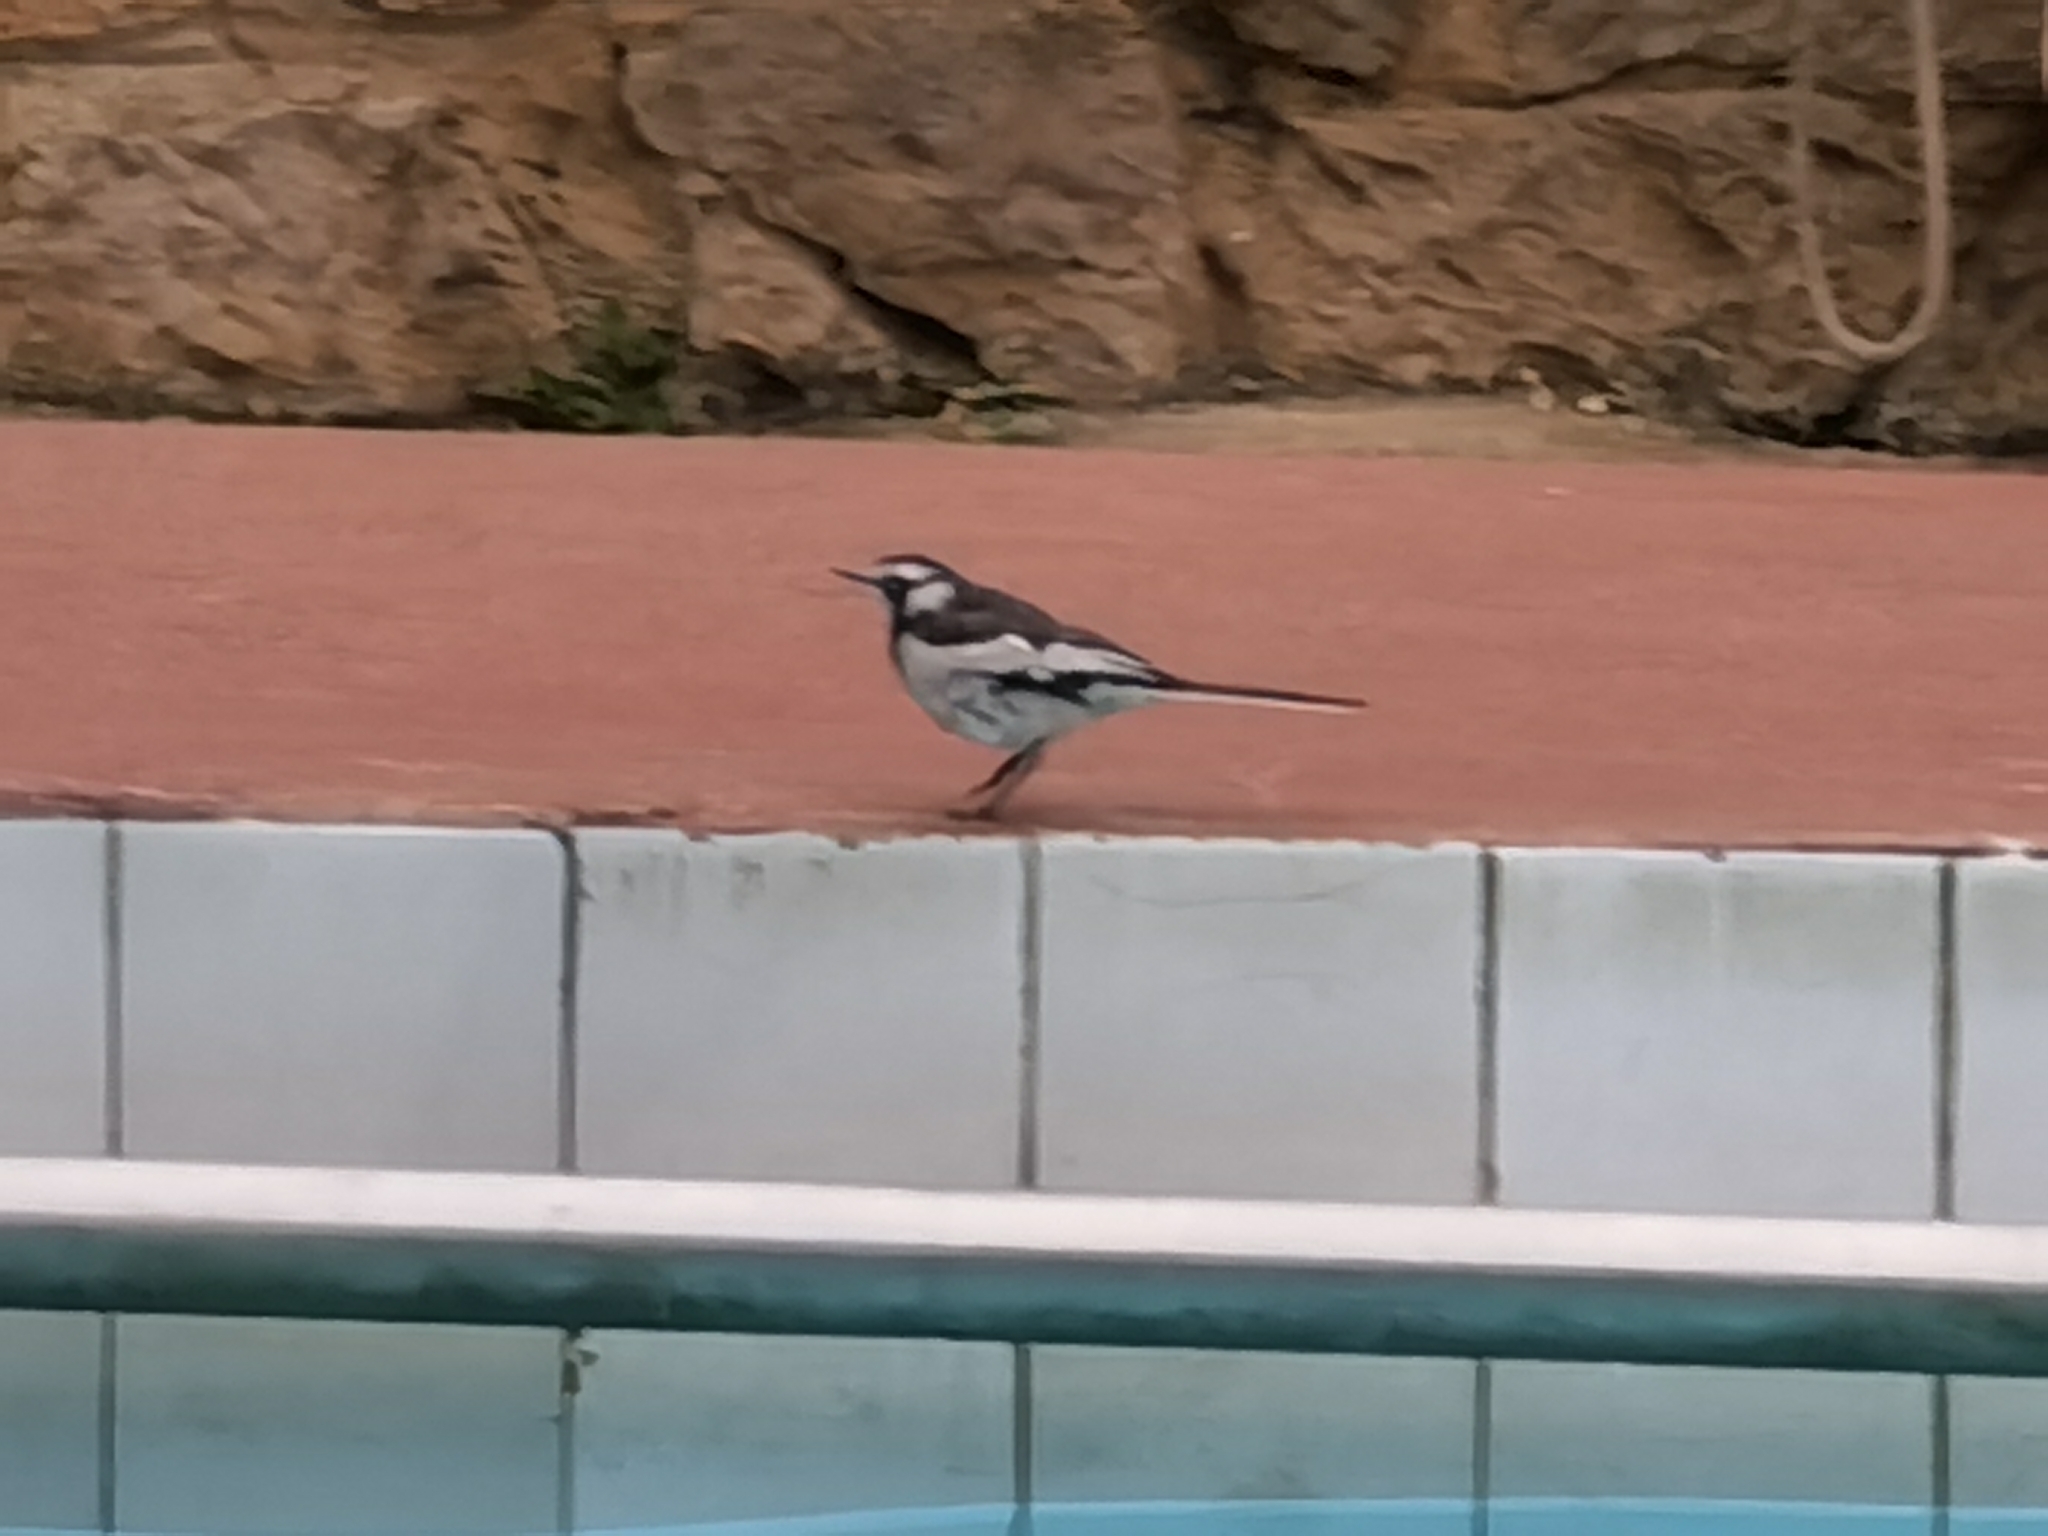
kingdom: Animalia
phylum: Chordata
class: Aves
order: Passeriformes
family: Motacillidae
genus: Motacilla
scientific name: Motacilla aguimp
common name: African pied wagtail
